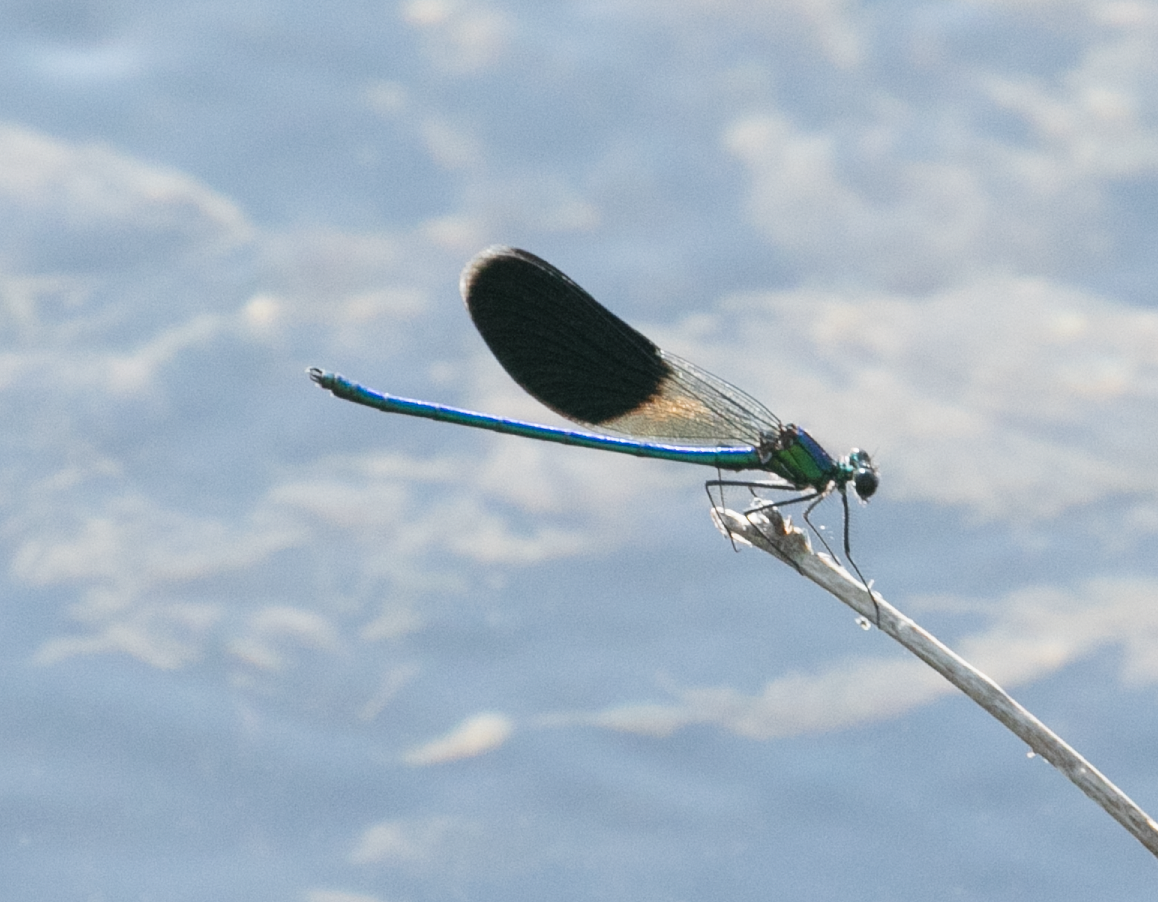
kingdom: Animalia
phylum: Arthropoda
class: Insecta
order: Odonata
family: Calopterygidae
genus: Calopteryx
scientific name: Calopteryx splendens
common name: Banded demoiselle
